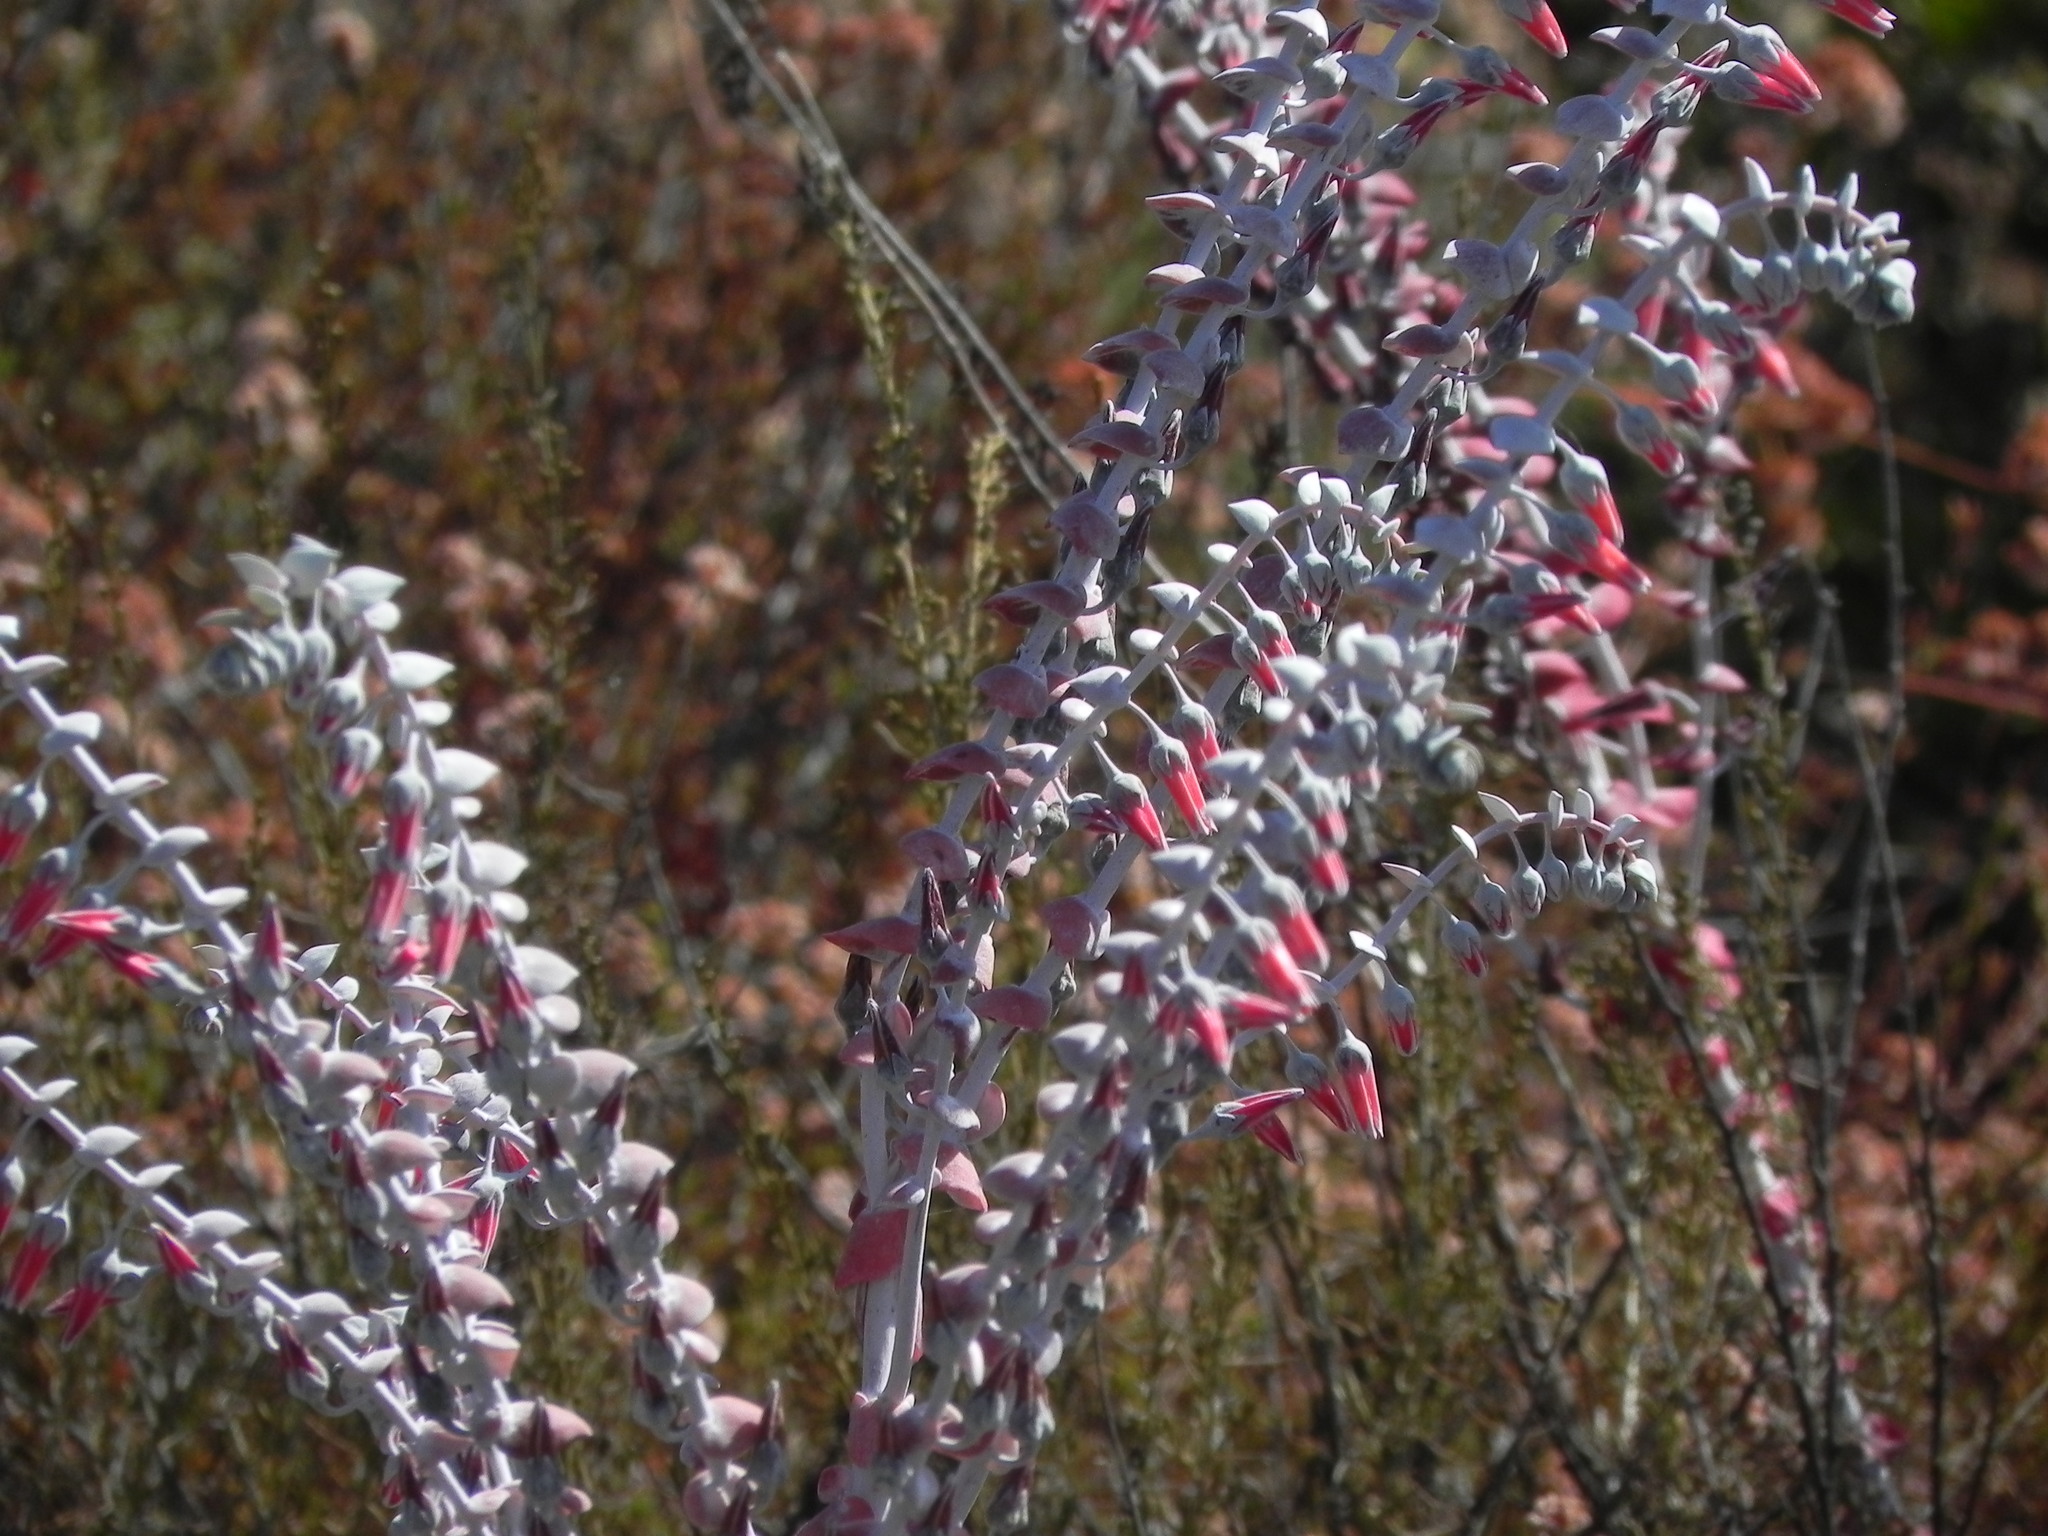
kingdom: Plantae
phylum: Tracheophyta
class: Magnoliopsida
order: Saxifragales
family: Crassulaceae
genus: Dudleya
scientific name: Dudleya pulverulenta
